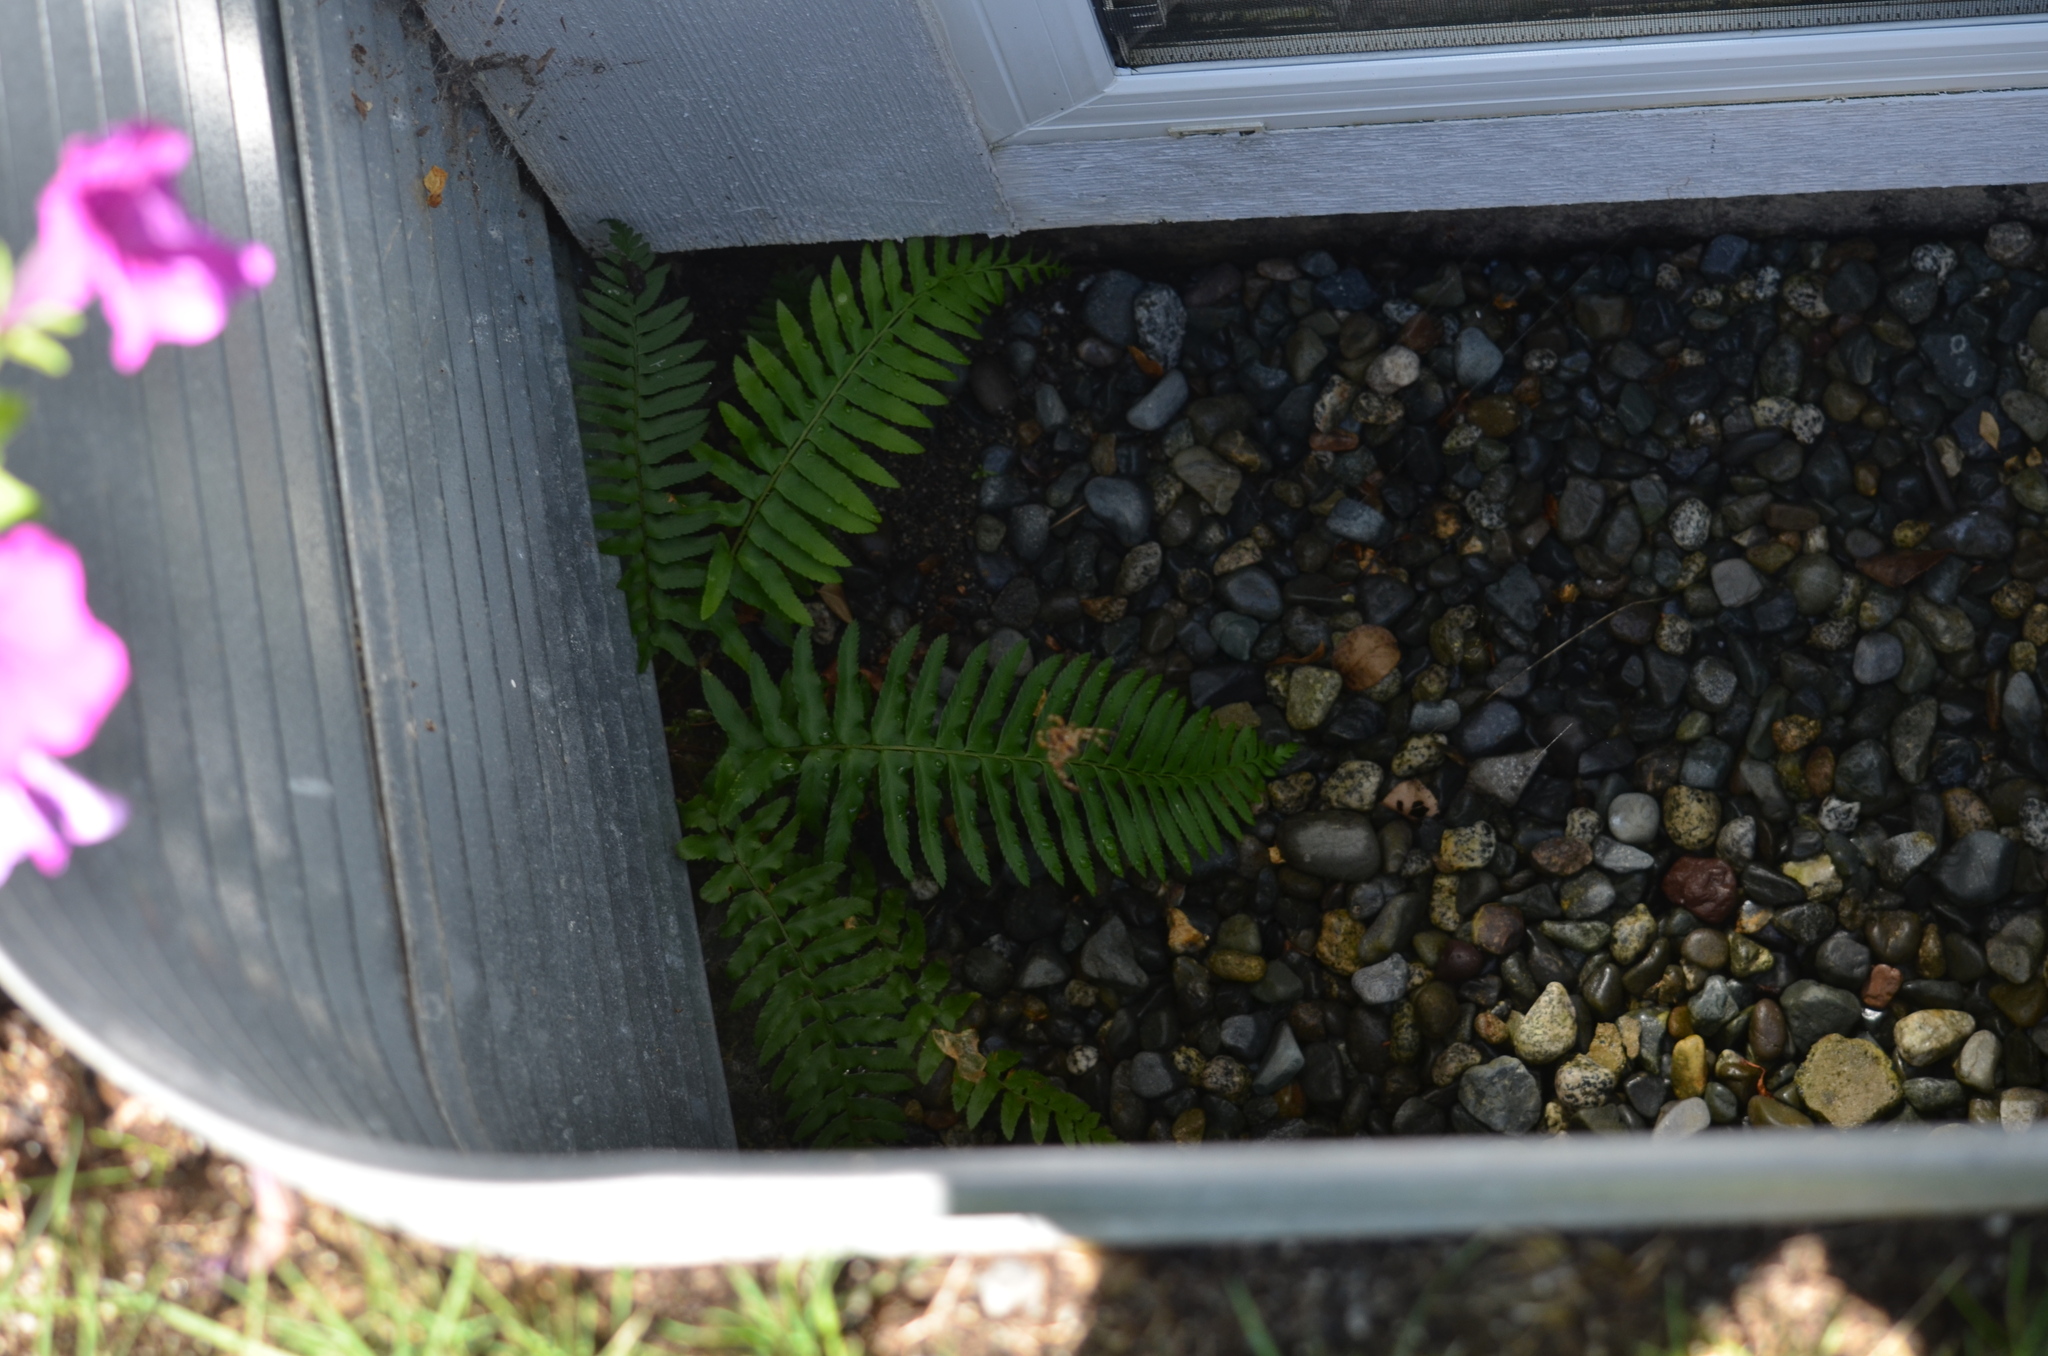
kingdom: Animalia
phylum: Arthropoda
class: Arachnida
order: Araneae
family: Araneidae
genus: Araneus
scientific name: Araneus diadematus
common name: Cross orbweaver
